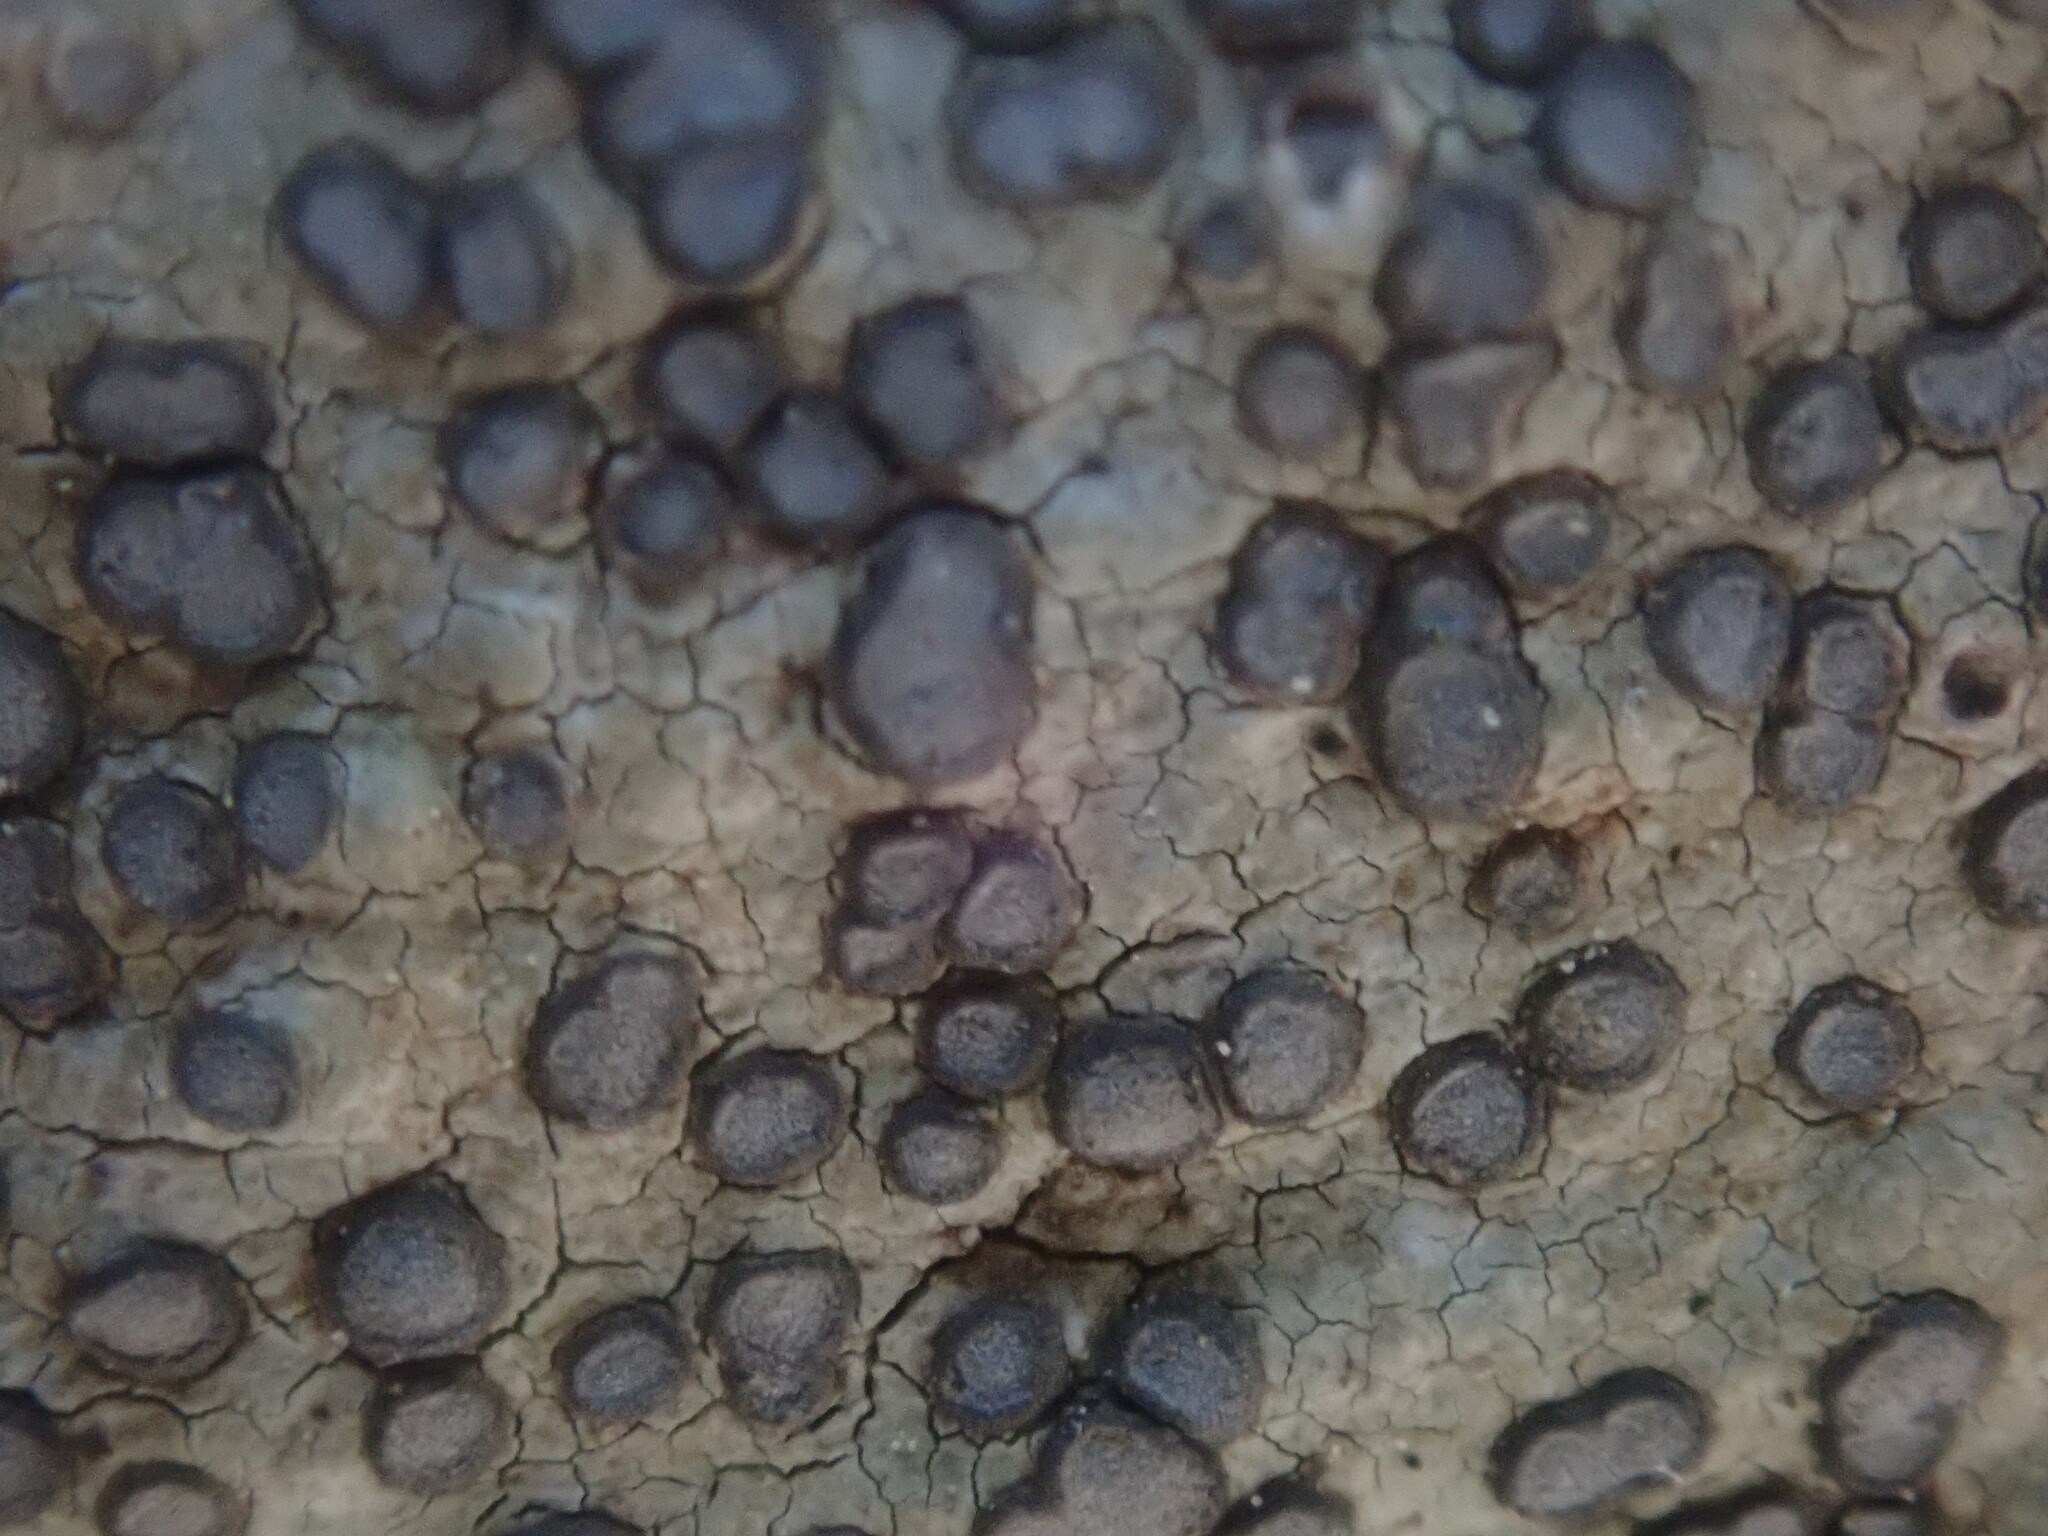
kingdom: Fungi
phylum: Ascomycota
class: Lecanoromycetes
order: Lecideales
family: Lecideaceae
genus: Porpidia
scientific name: Porpidia albocaerulescens
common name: Smokey-eyed boulder lichen
